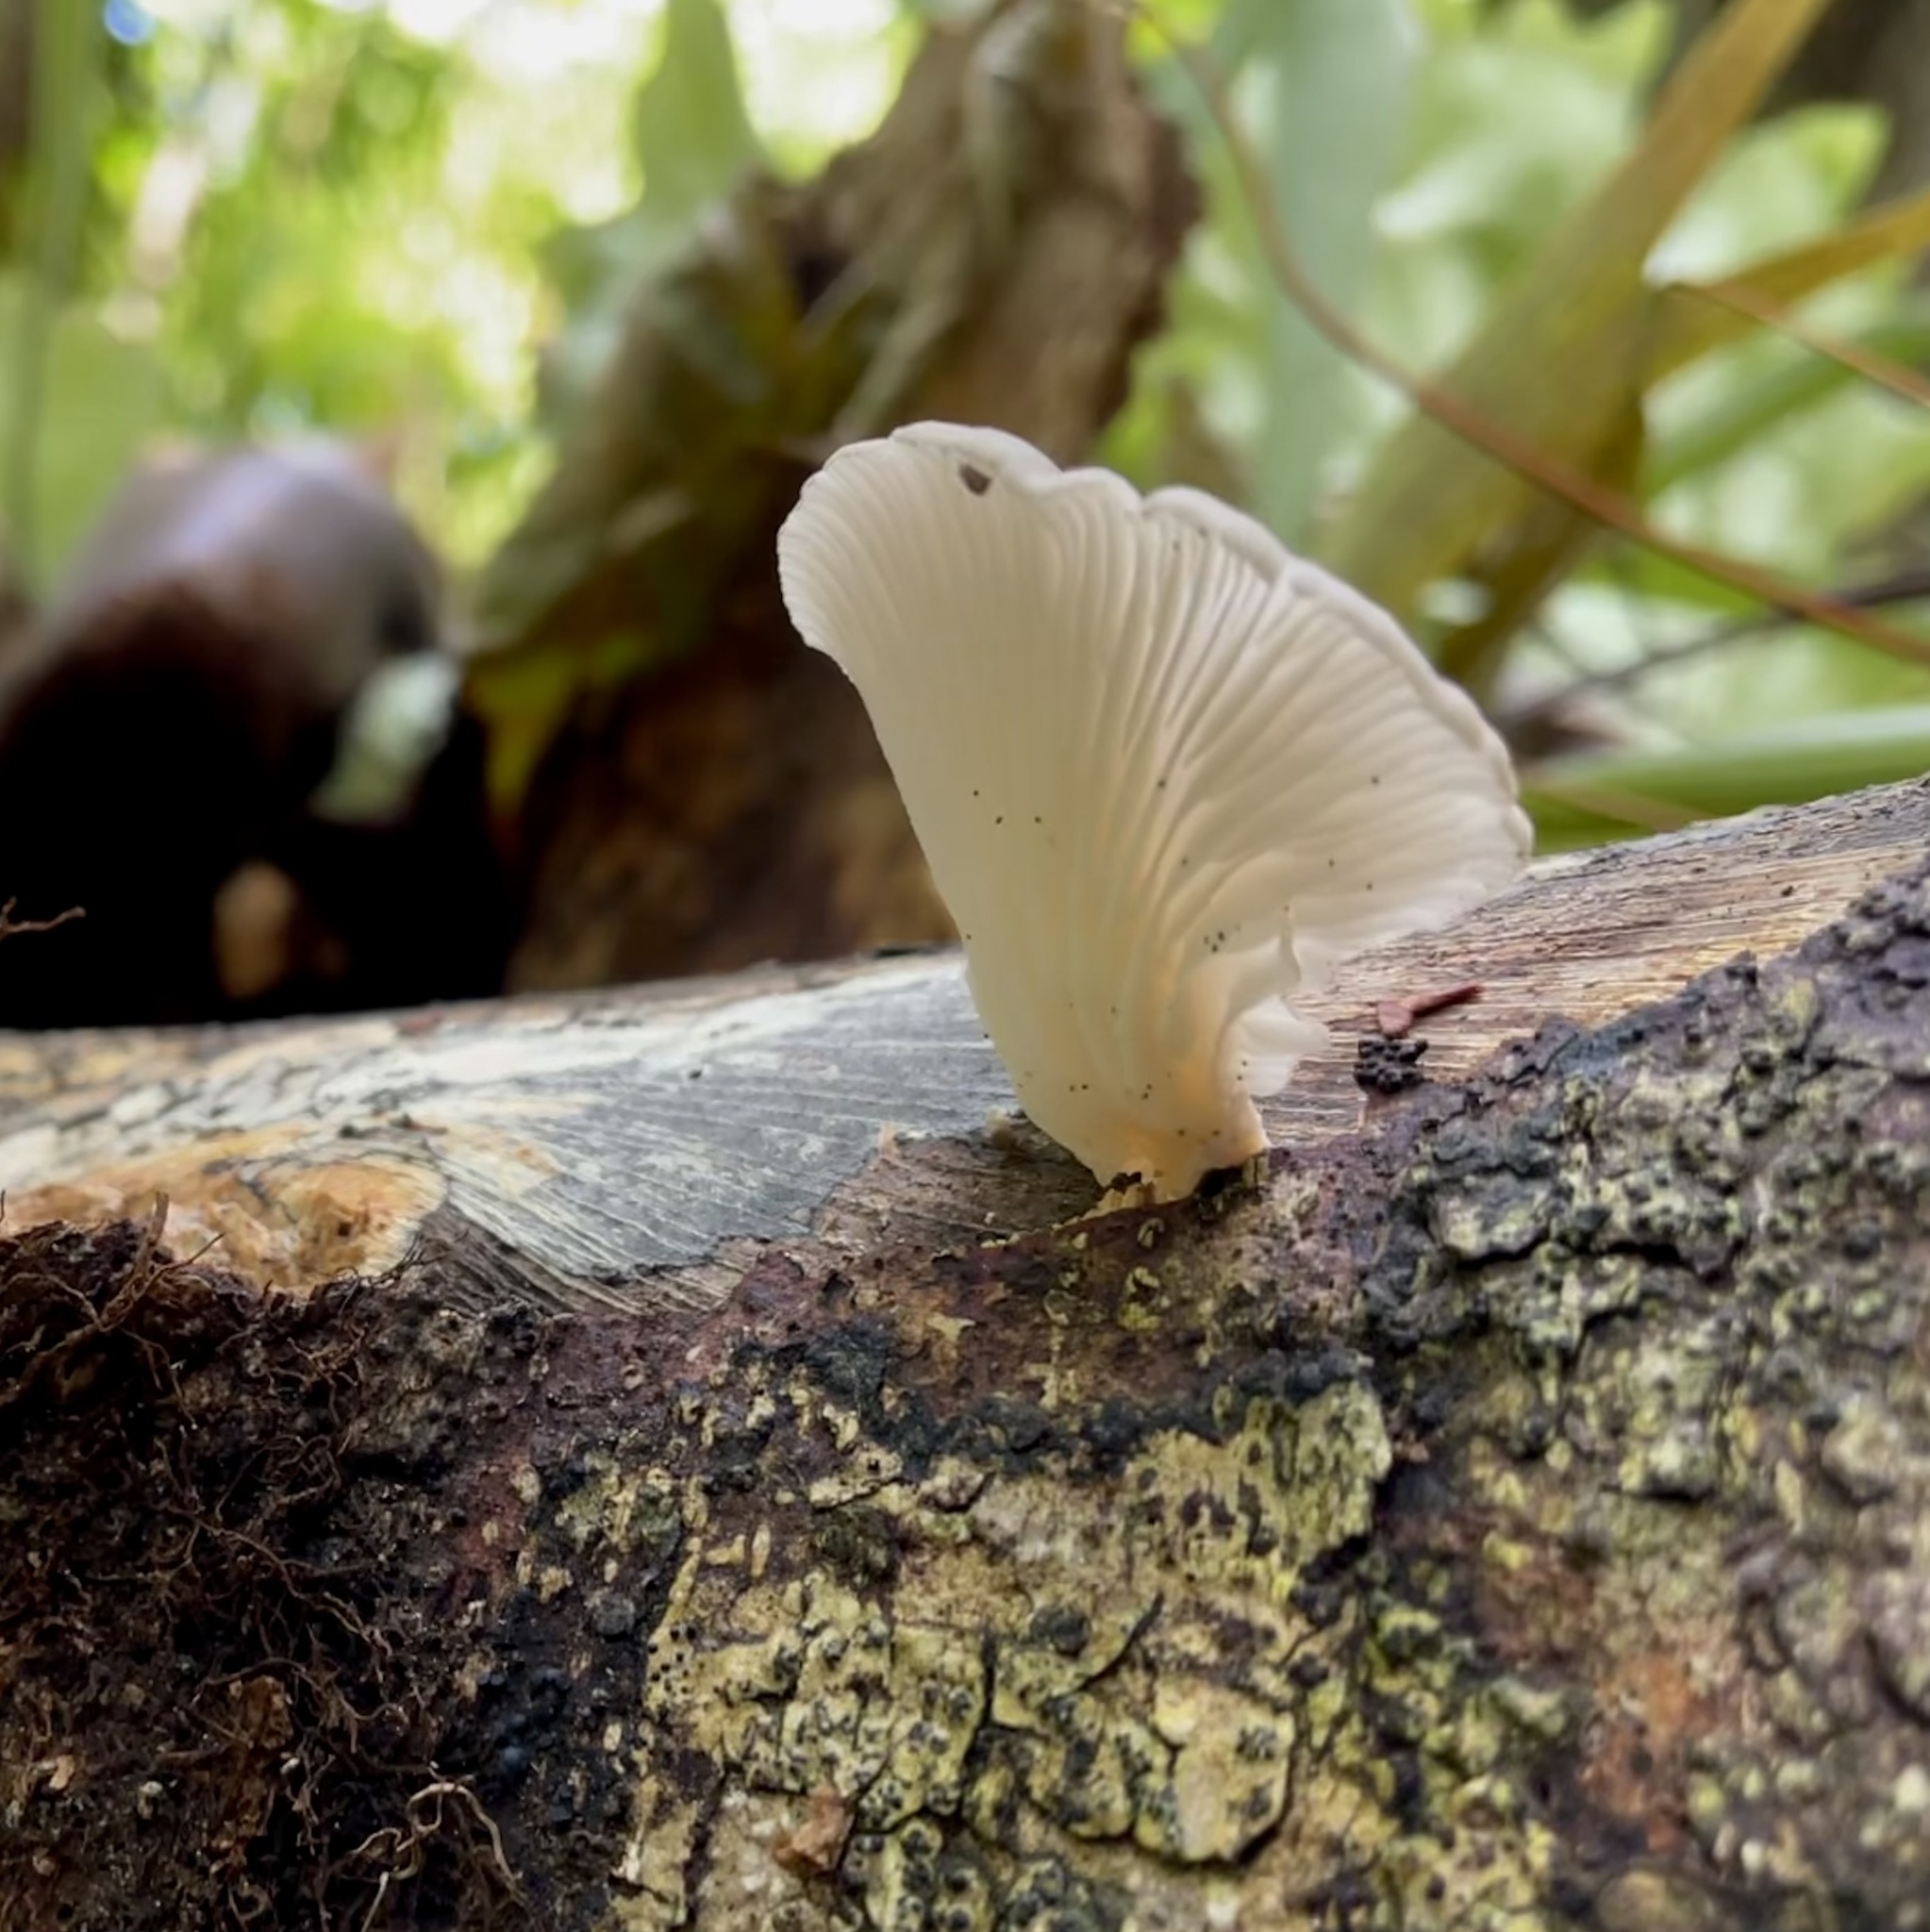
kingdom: Fungi
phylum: Basidiomycota
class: Agaricomycetes
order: Agaricales
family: Pleurotaceae
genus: Pleurotus
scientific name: Pleurotus pulmonarius
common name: Pale oyster
